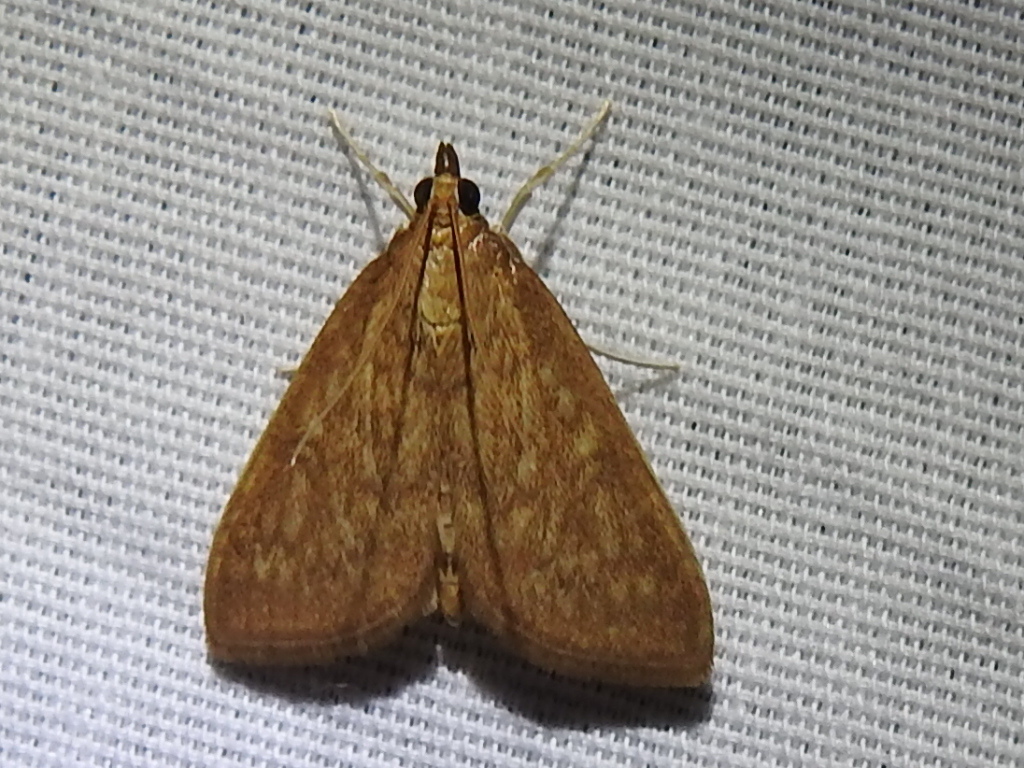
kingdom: Animalia
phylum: Arthropoda
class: Insecta
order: Lepidoptera
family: Crambidae
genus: Anania
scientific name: Anania Framinghamia helvalis
